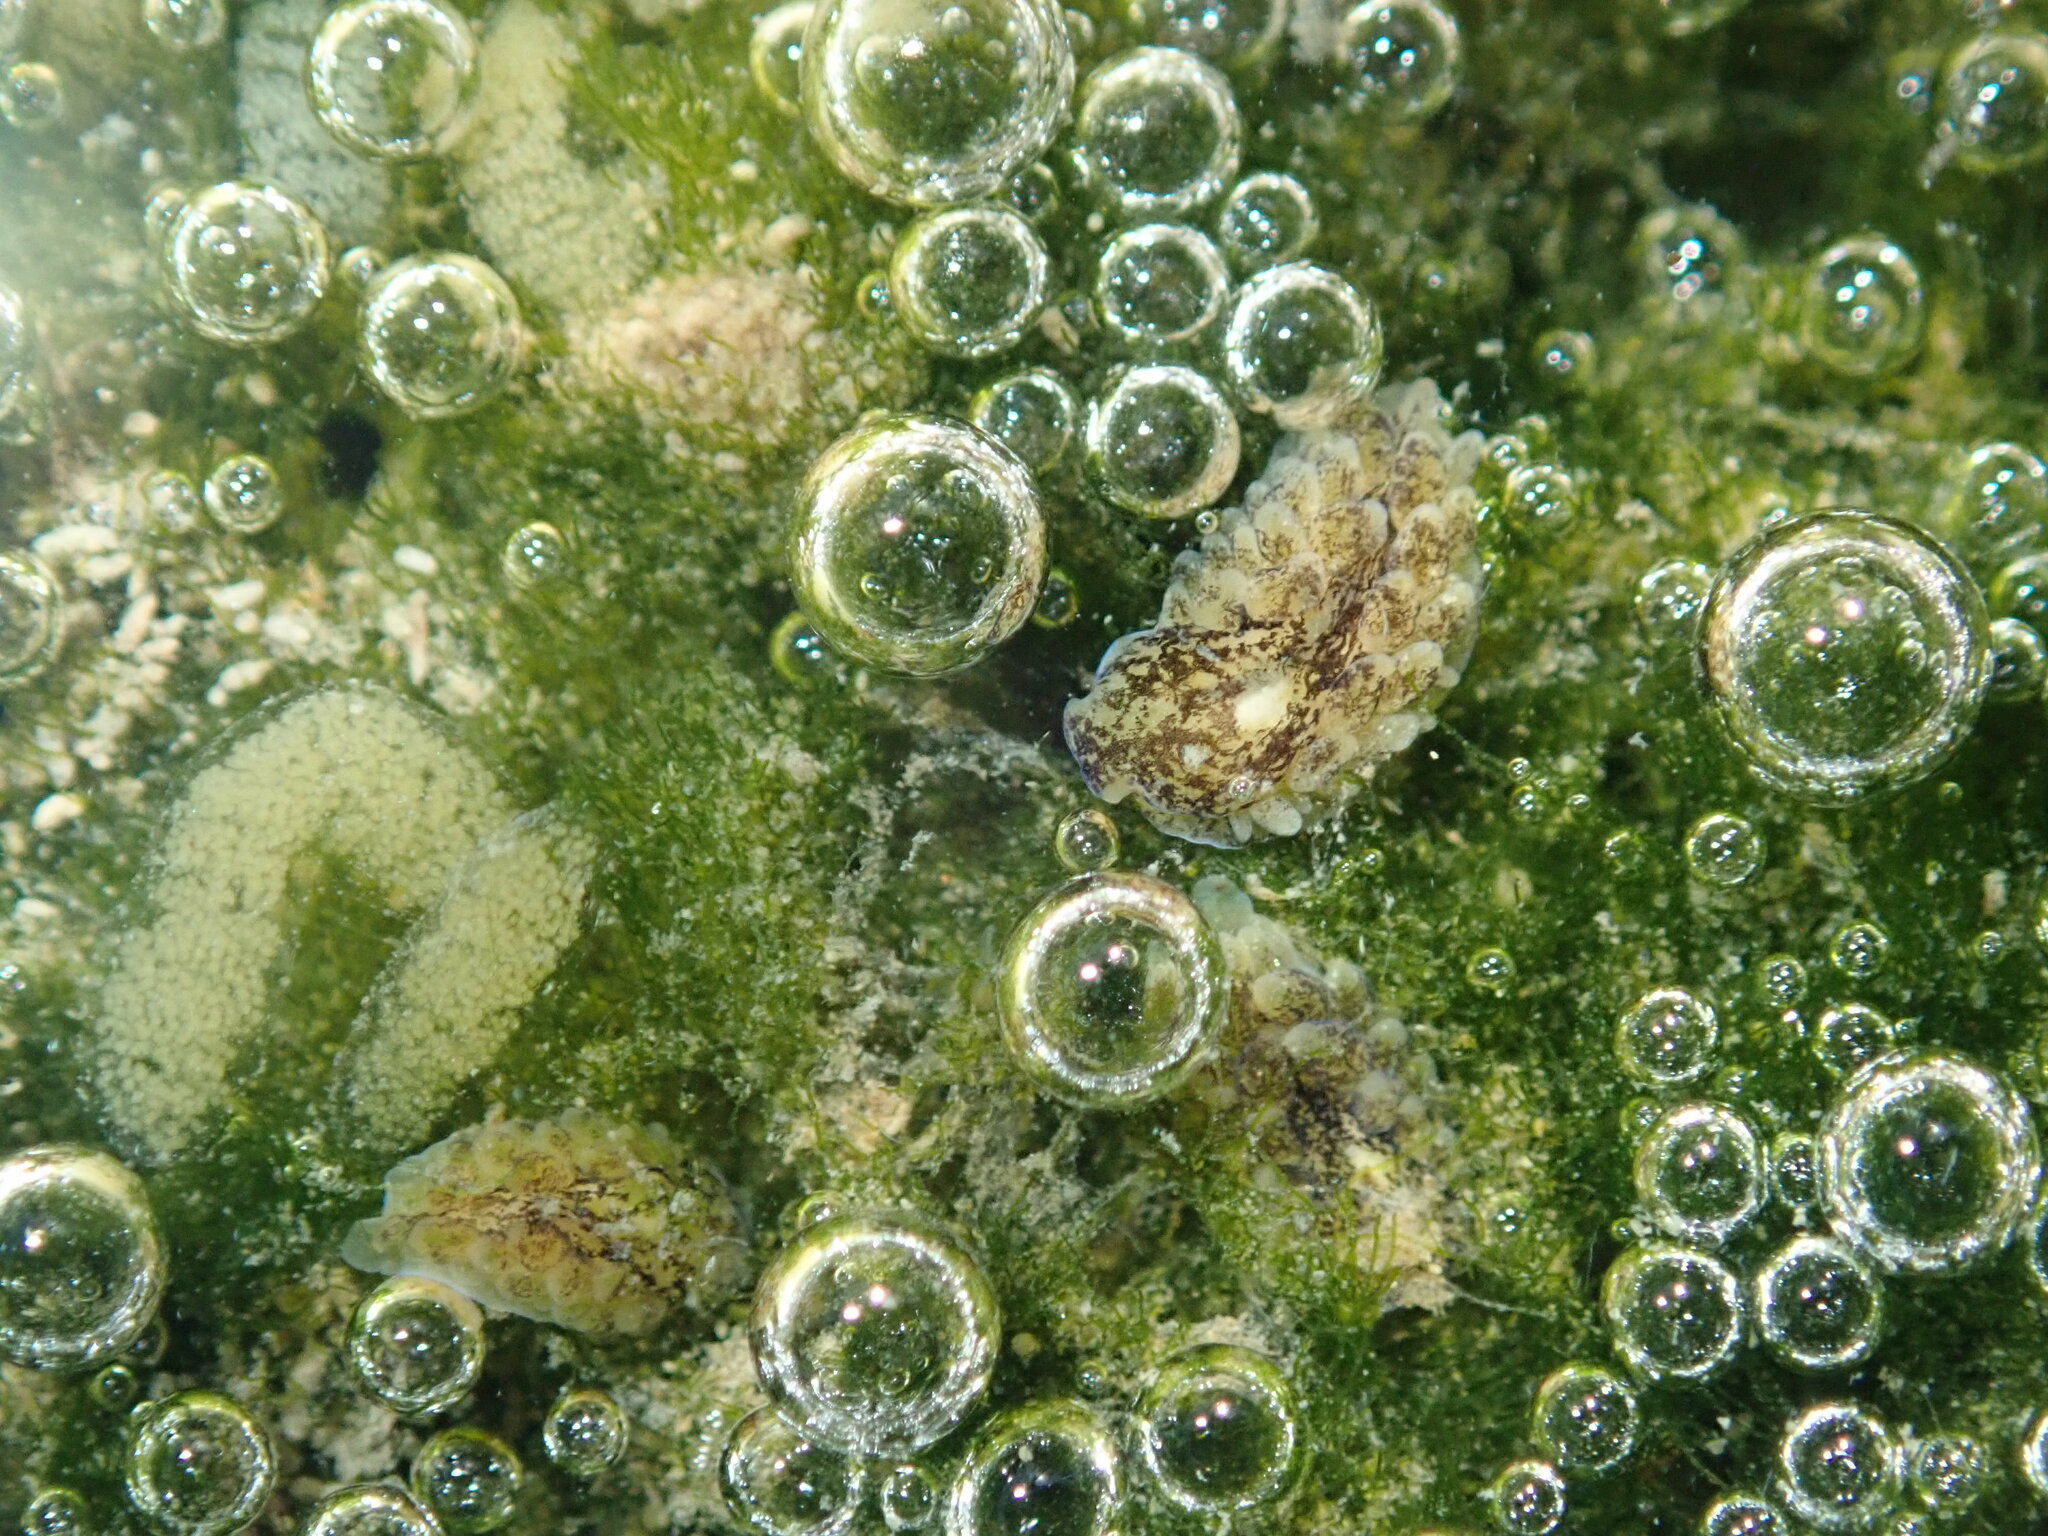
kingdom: Animalia
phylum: Mollusca
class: Gastropoda
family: Limapontiidae
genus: Alderia
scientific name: Alderia modesta
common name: Modest alderia
